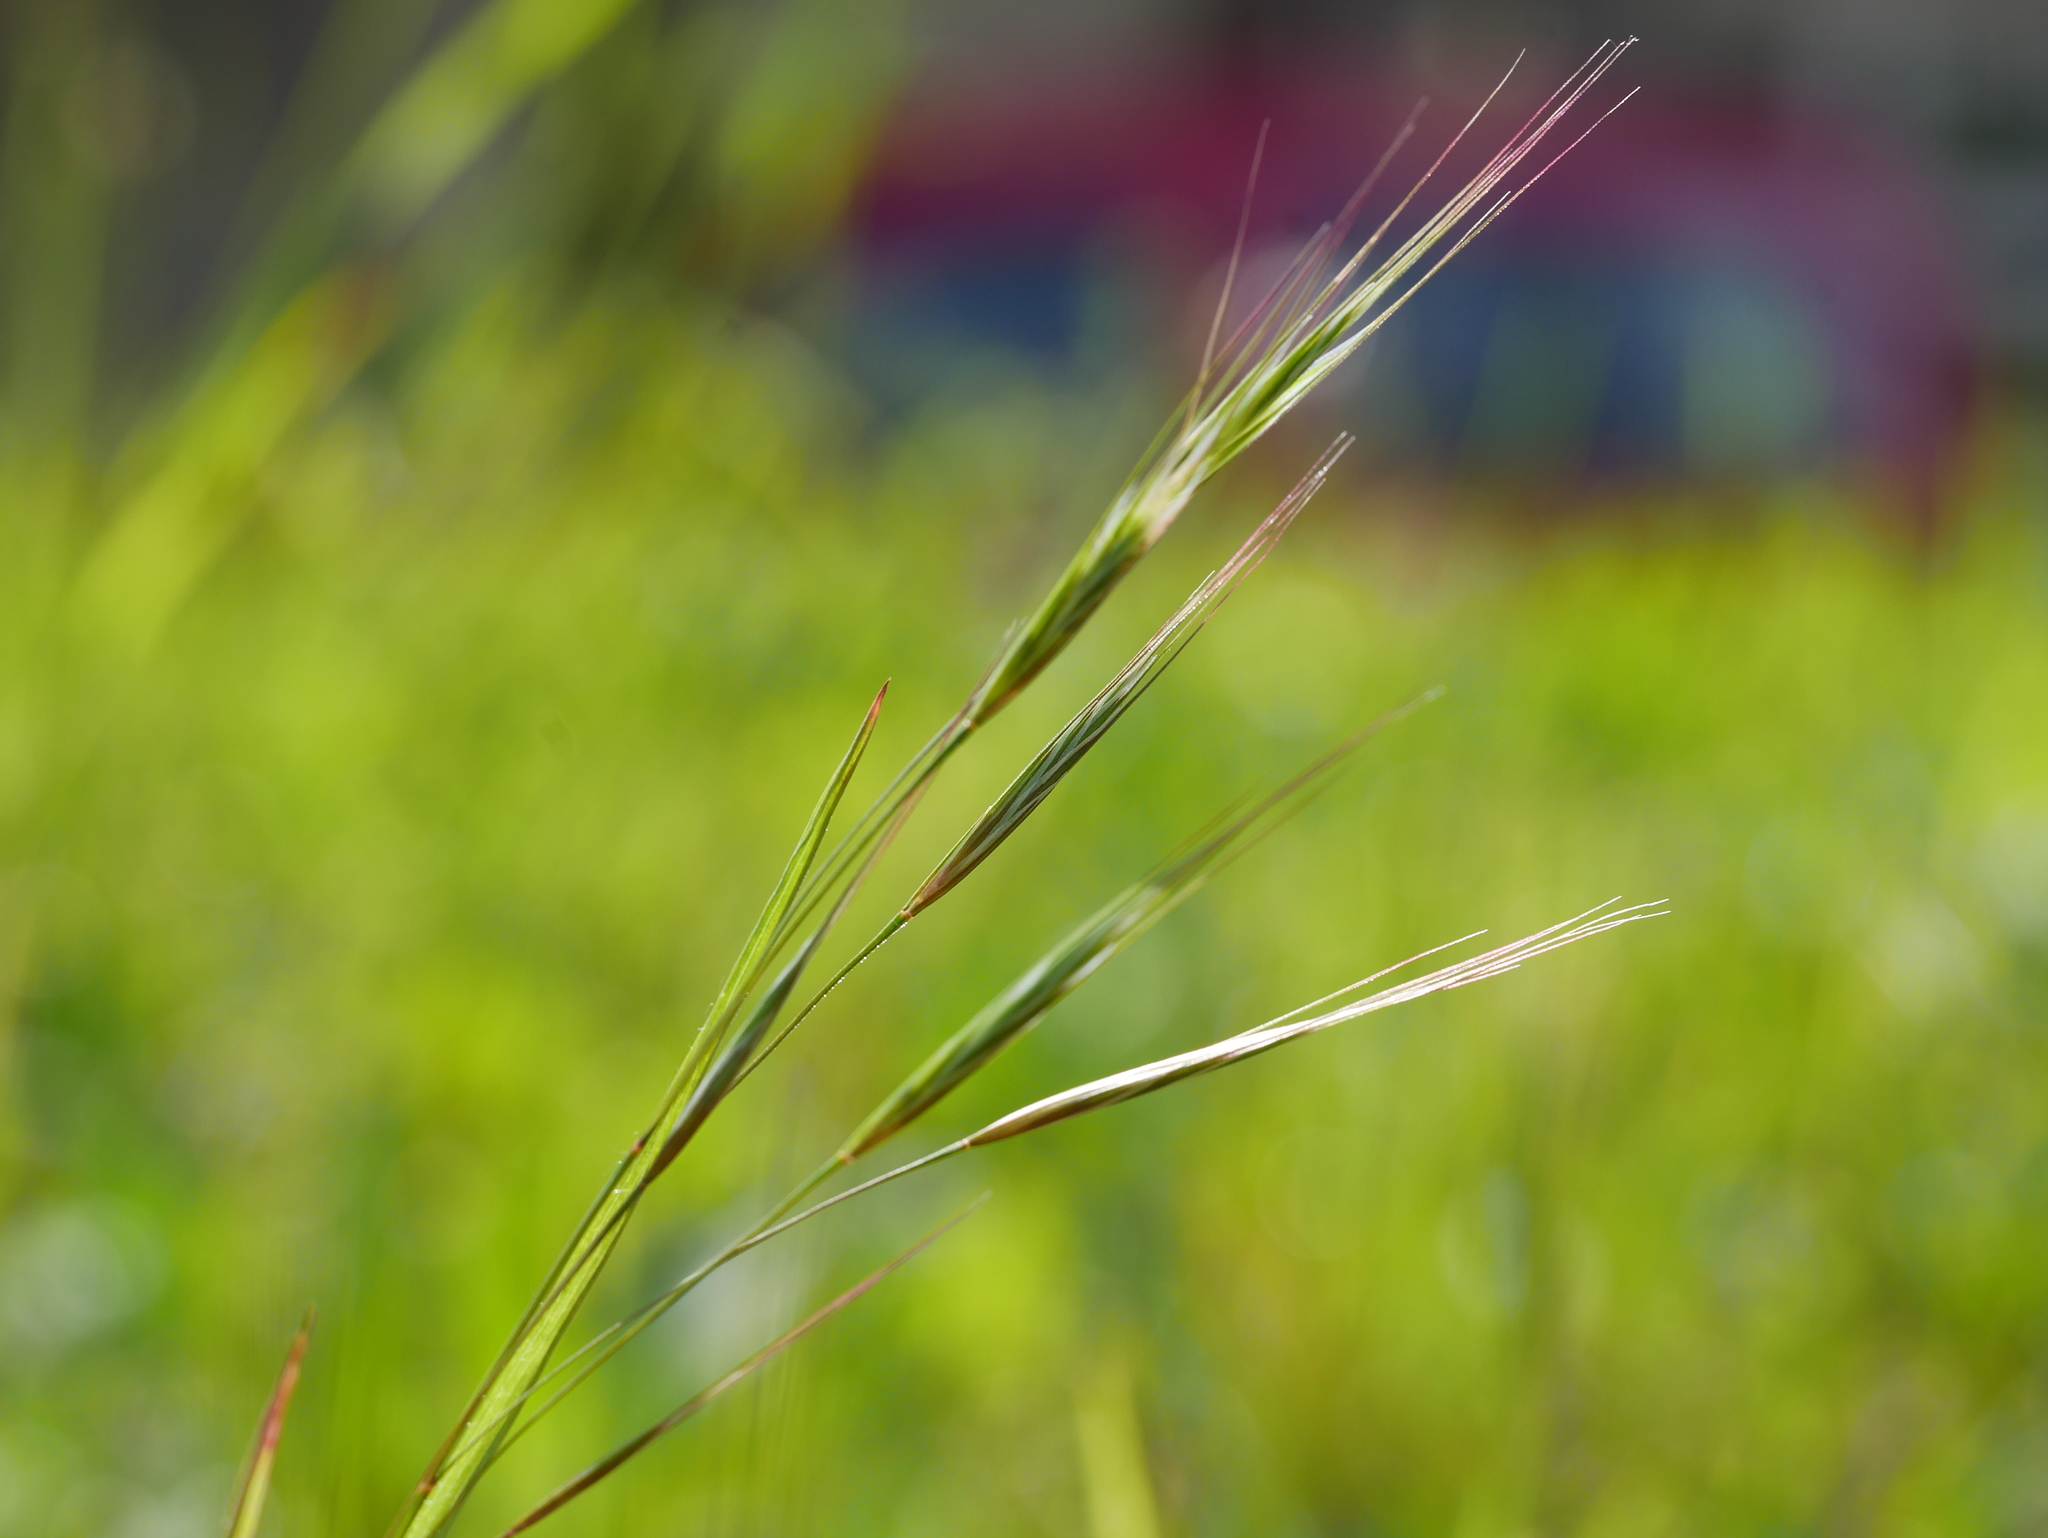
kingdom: Plantae
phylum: Tracheophyta
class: Liliopsida
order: Poales
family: Poaceae
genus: Bromus
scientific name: Bromus sterilis
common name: Poverty brome
